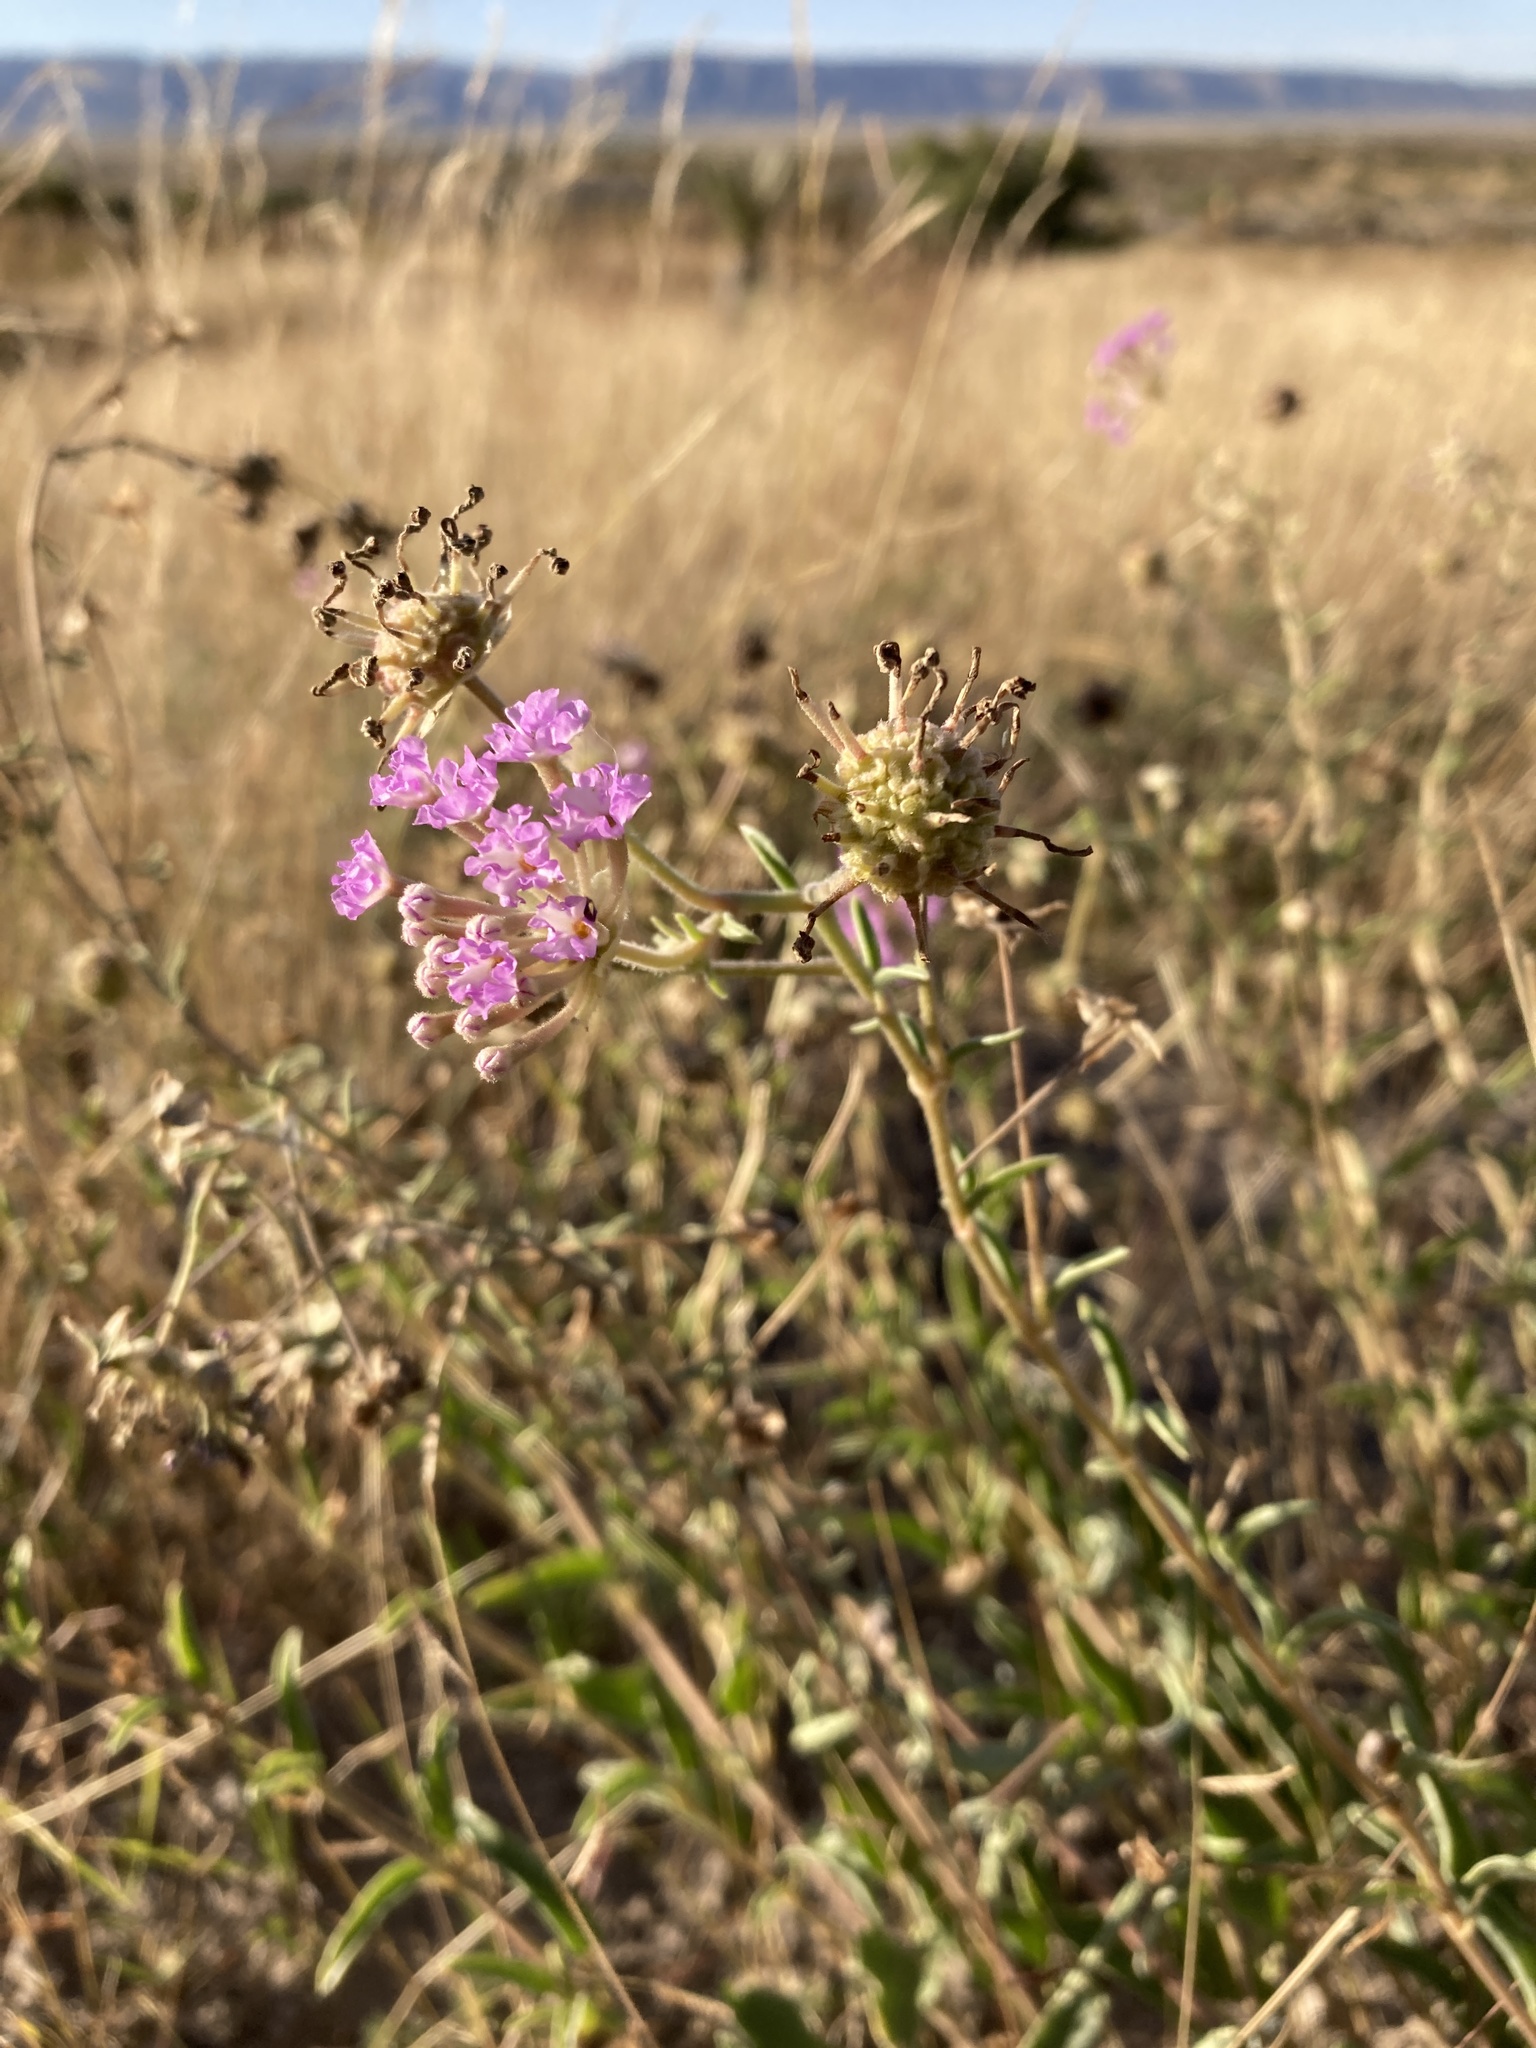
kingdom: Plantae
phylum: Tracheophyta
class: Magnoliopsida
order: Caryophyllales
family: Nyctaginaceae
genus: Abronia
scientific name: Abronia carletonii
